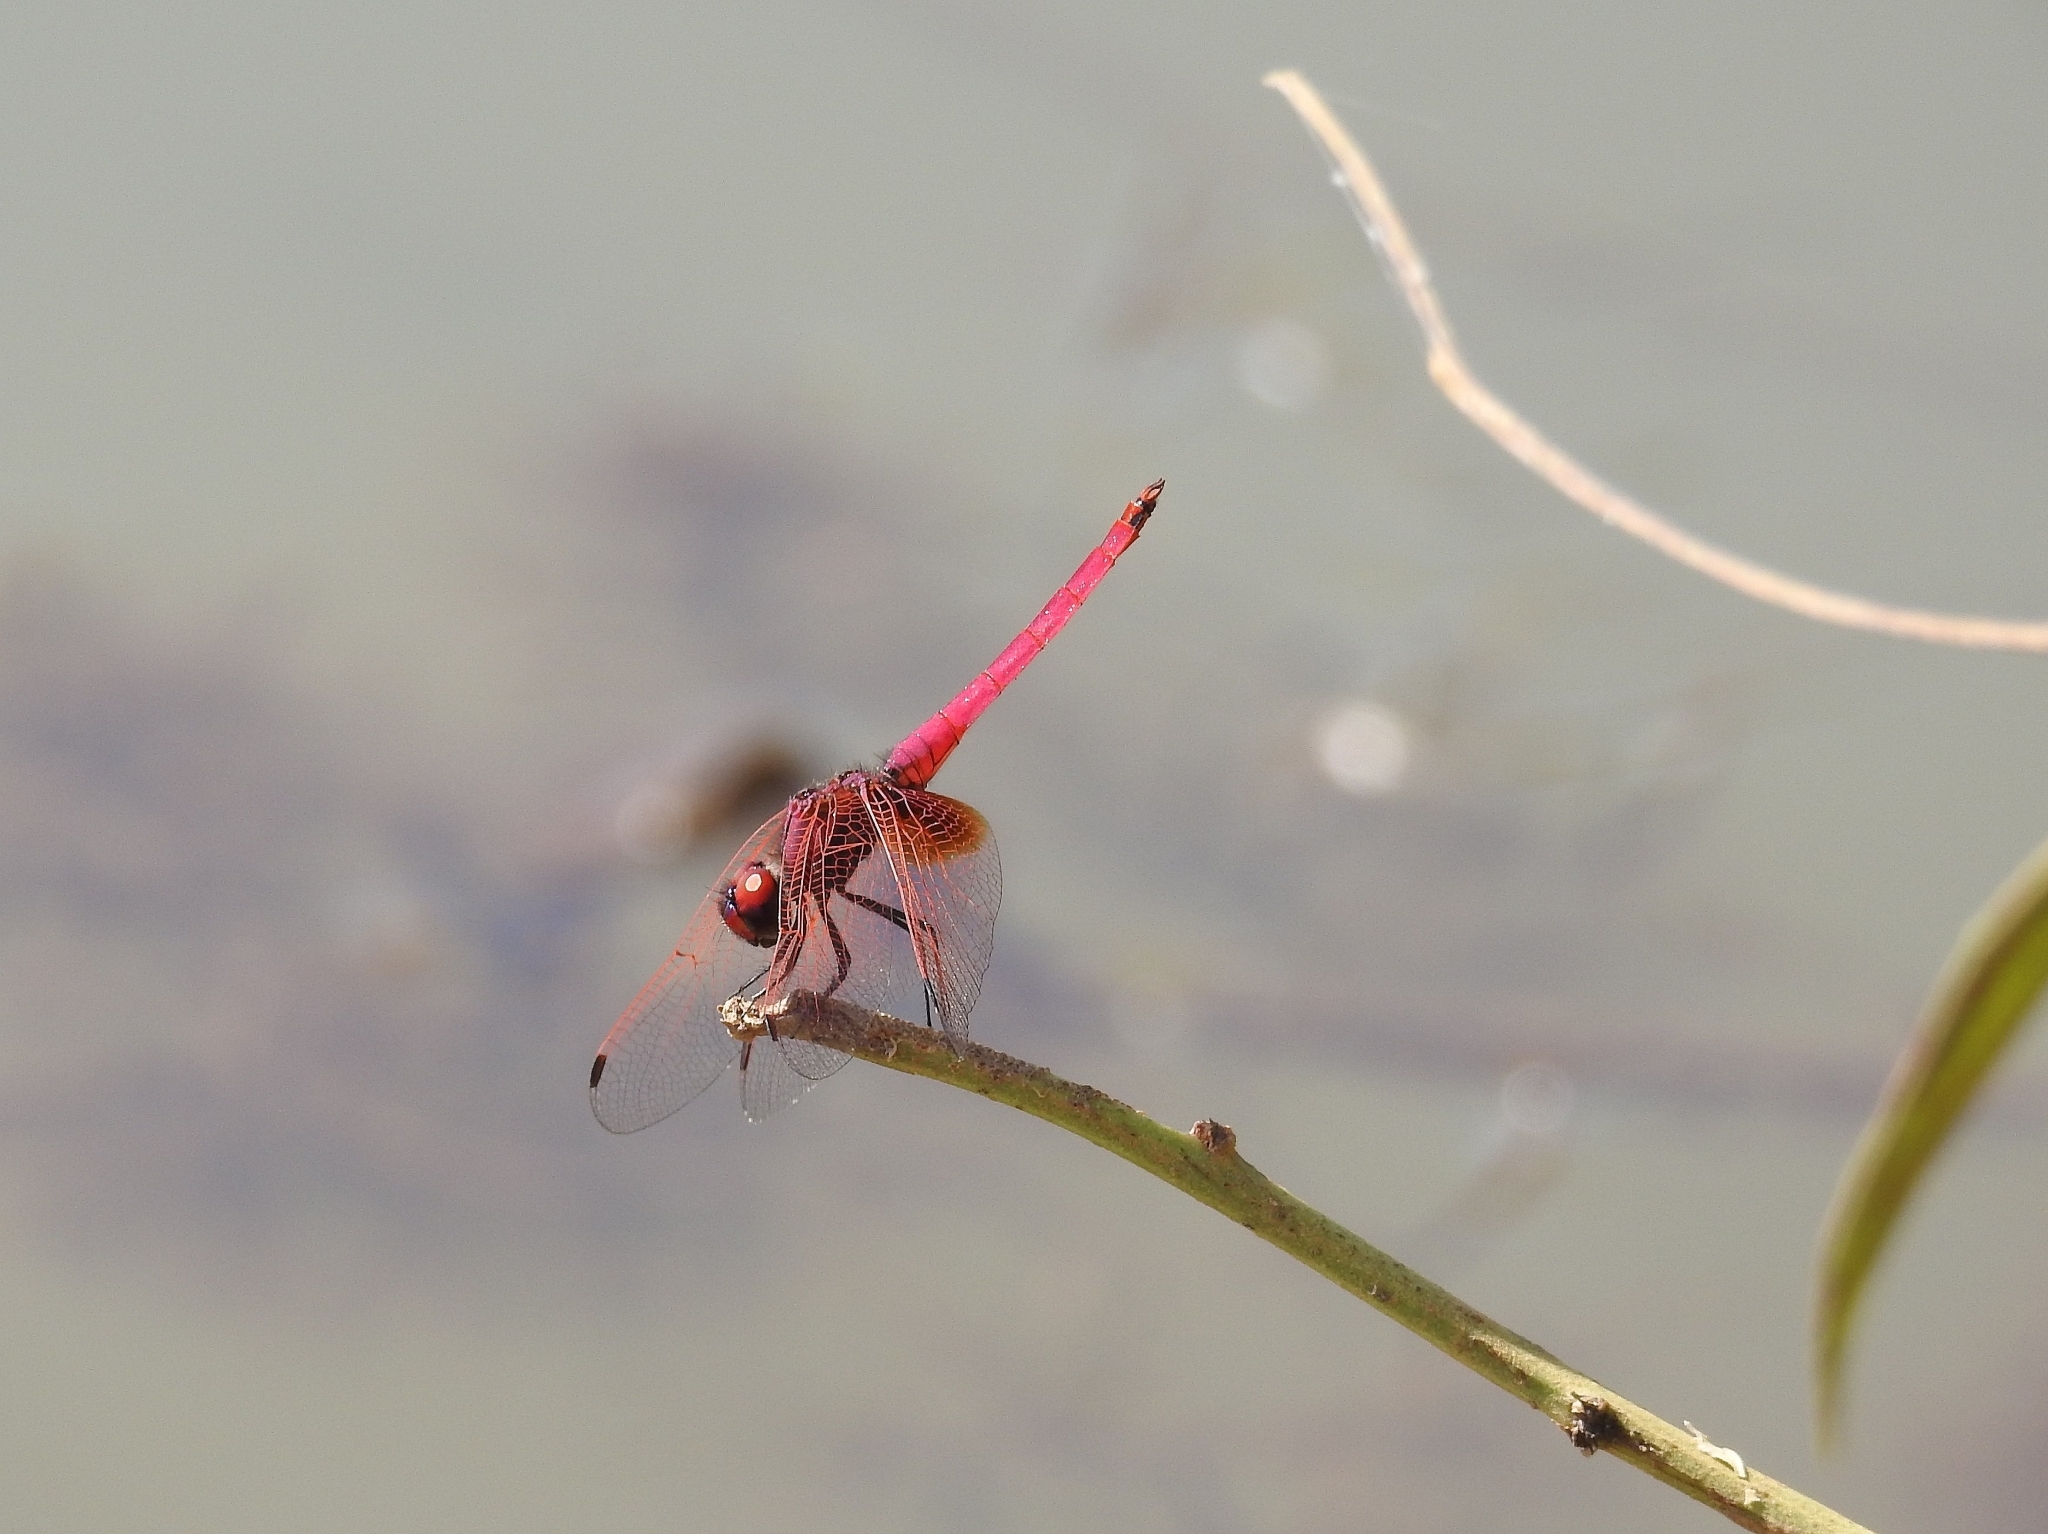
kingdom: Animalia
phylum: Arthropoda
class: Insecta
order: Odonata
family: Libellulidae
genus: Trithemis
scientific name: Trithemis aurora
